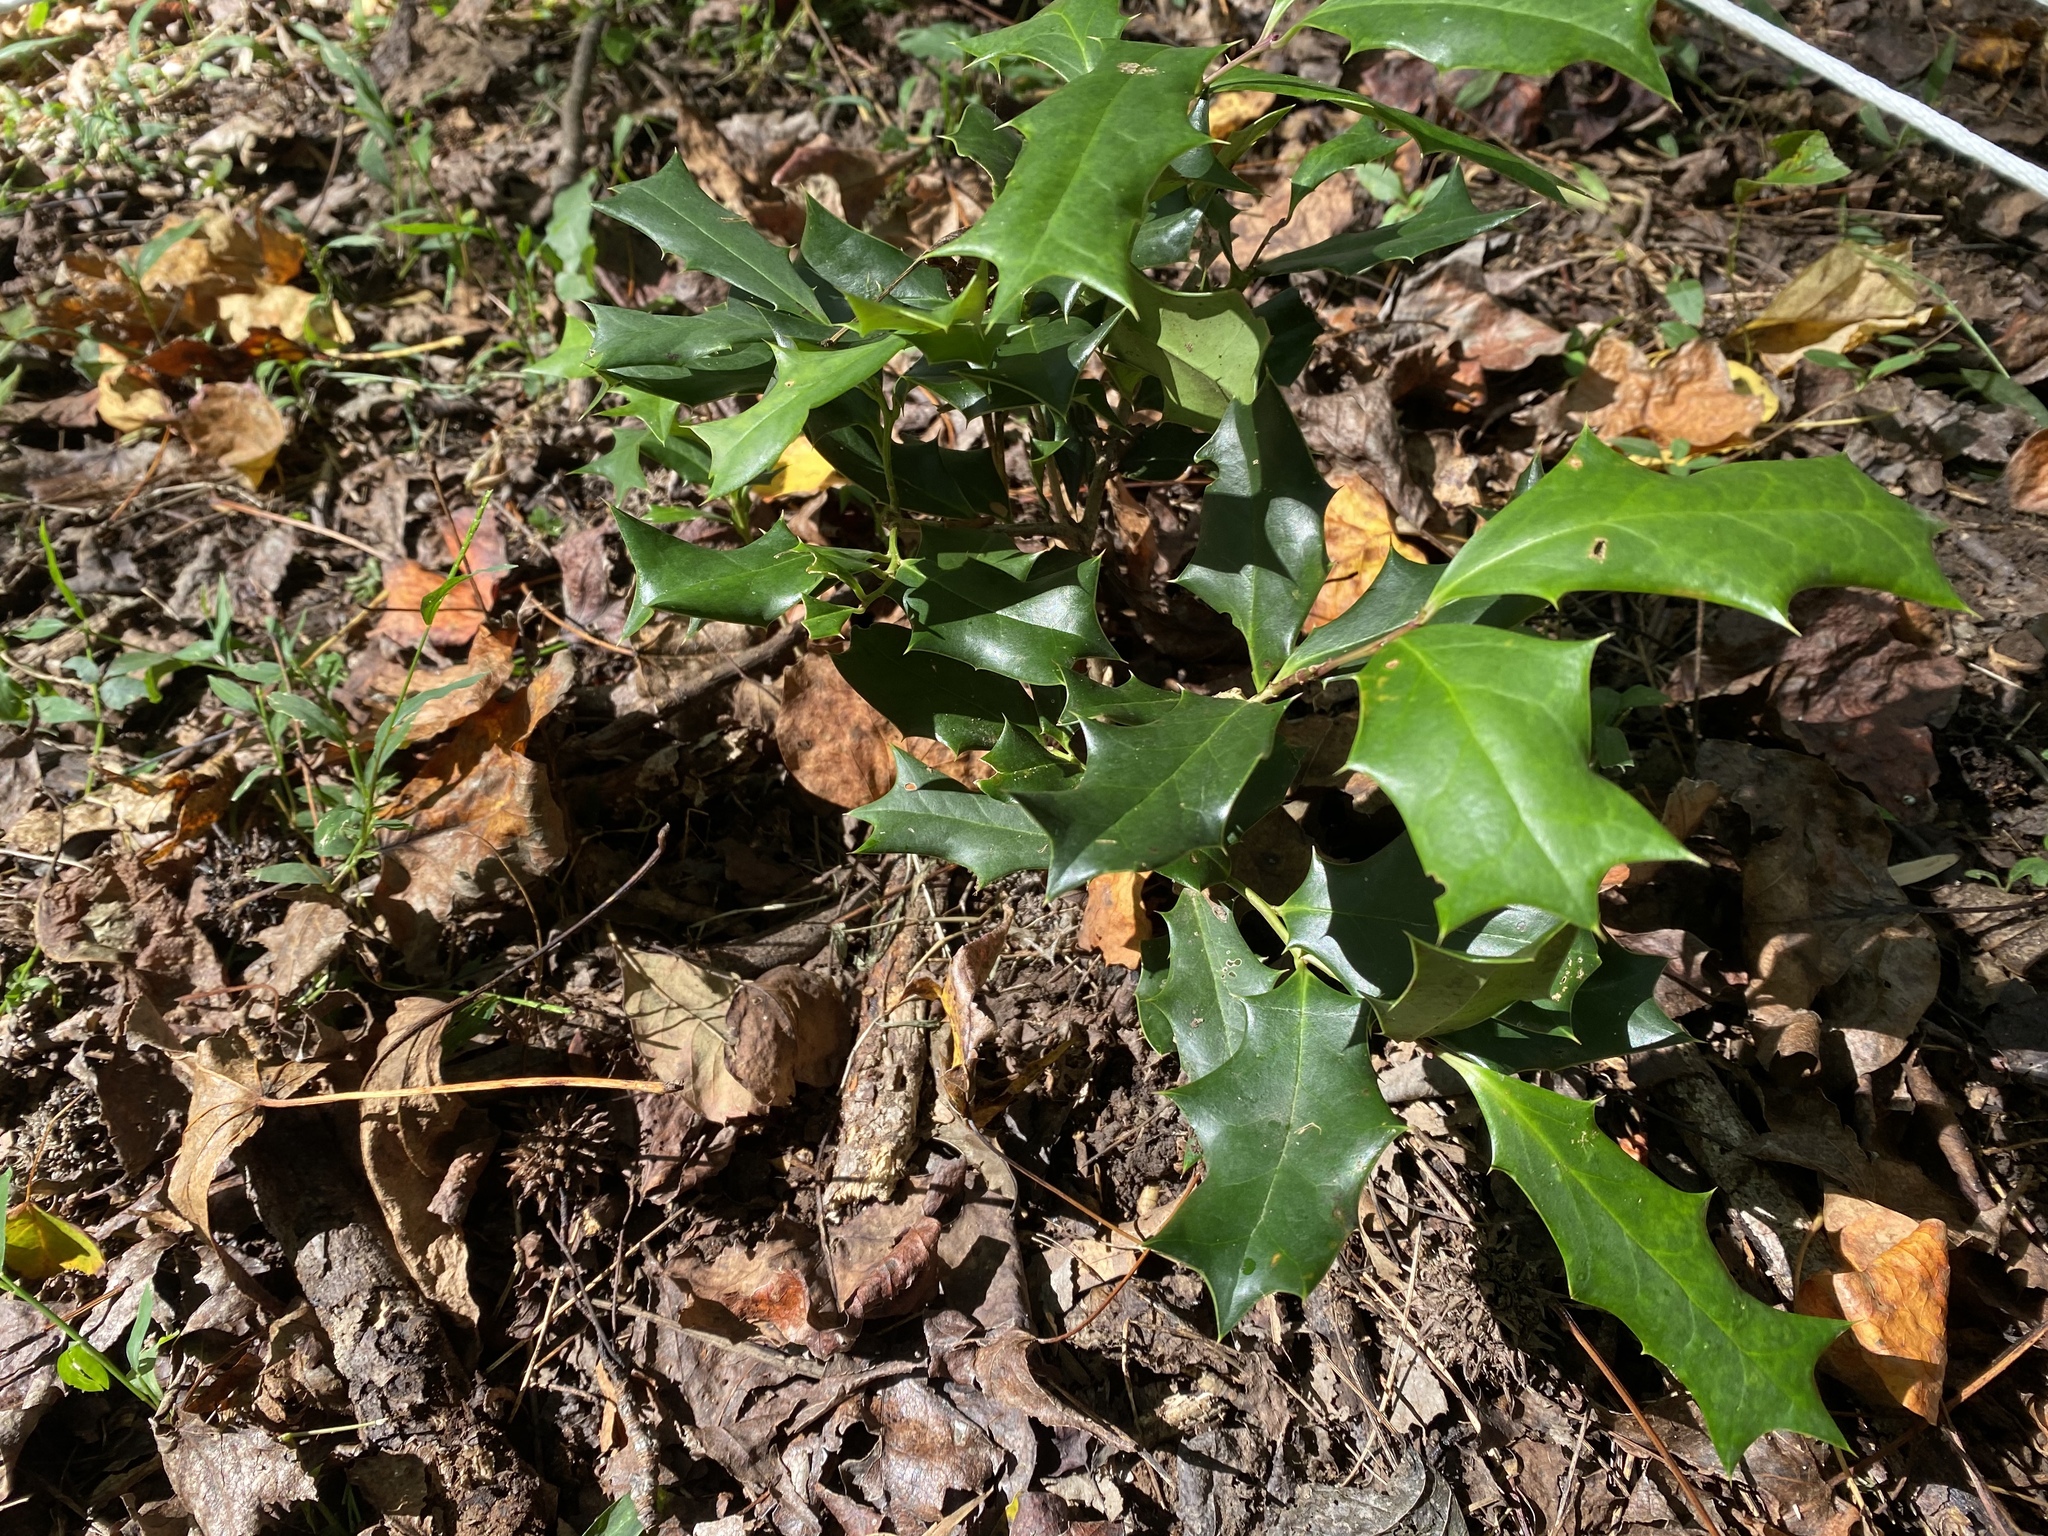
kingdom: Plantae
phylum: Tracheophyta
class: Magnoliopsida
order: Aquifoliales
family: Aquifoliaceae
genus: Ilex
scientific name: Ilex cornuta
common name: Chinese holly
